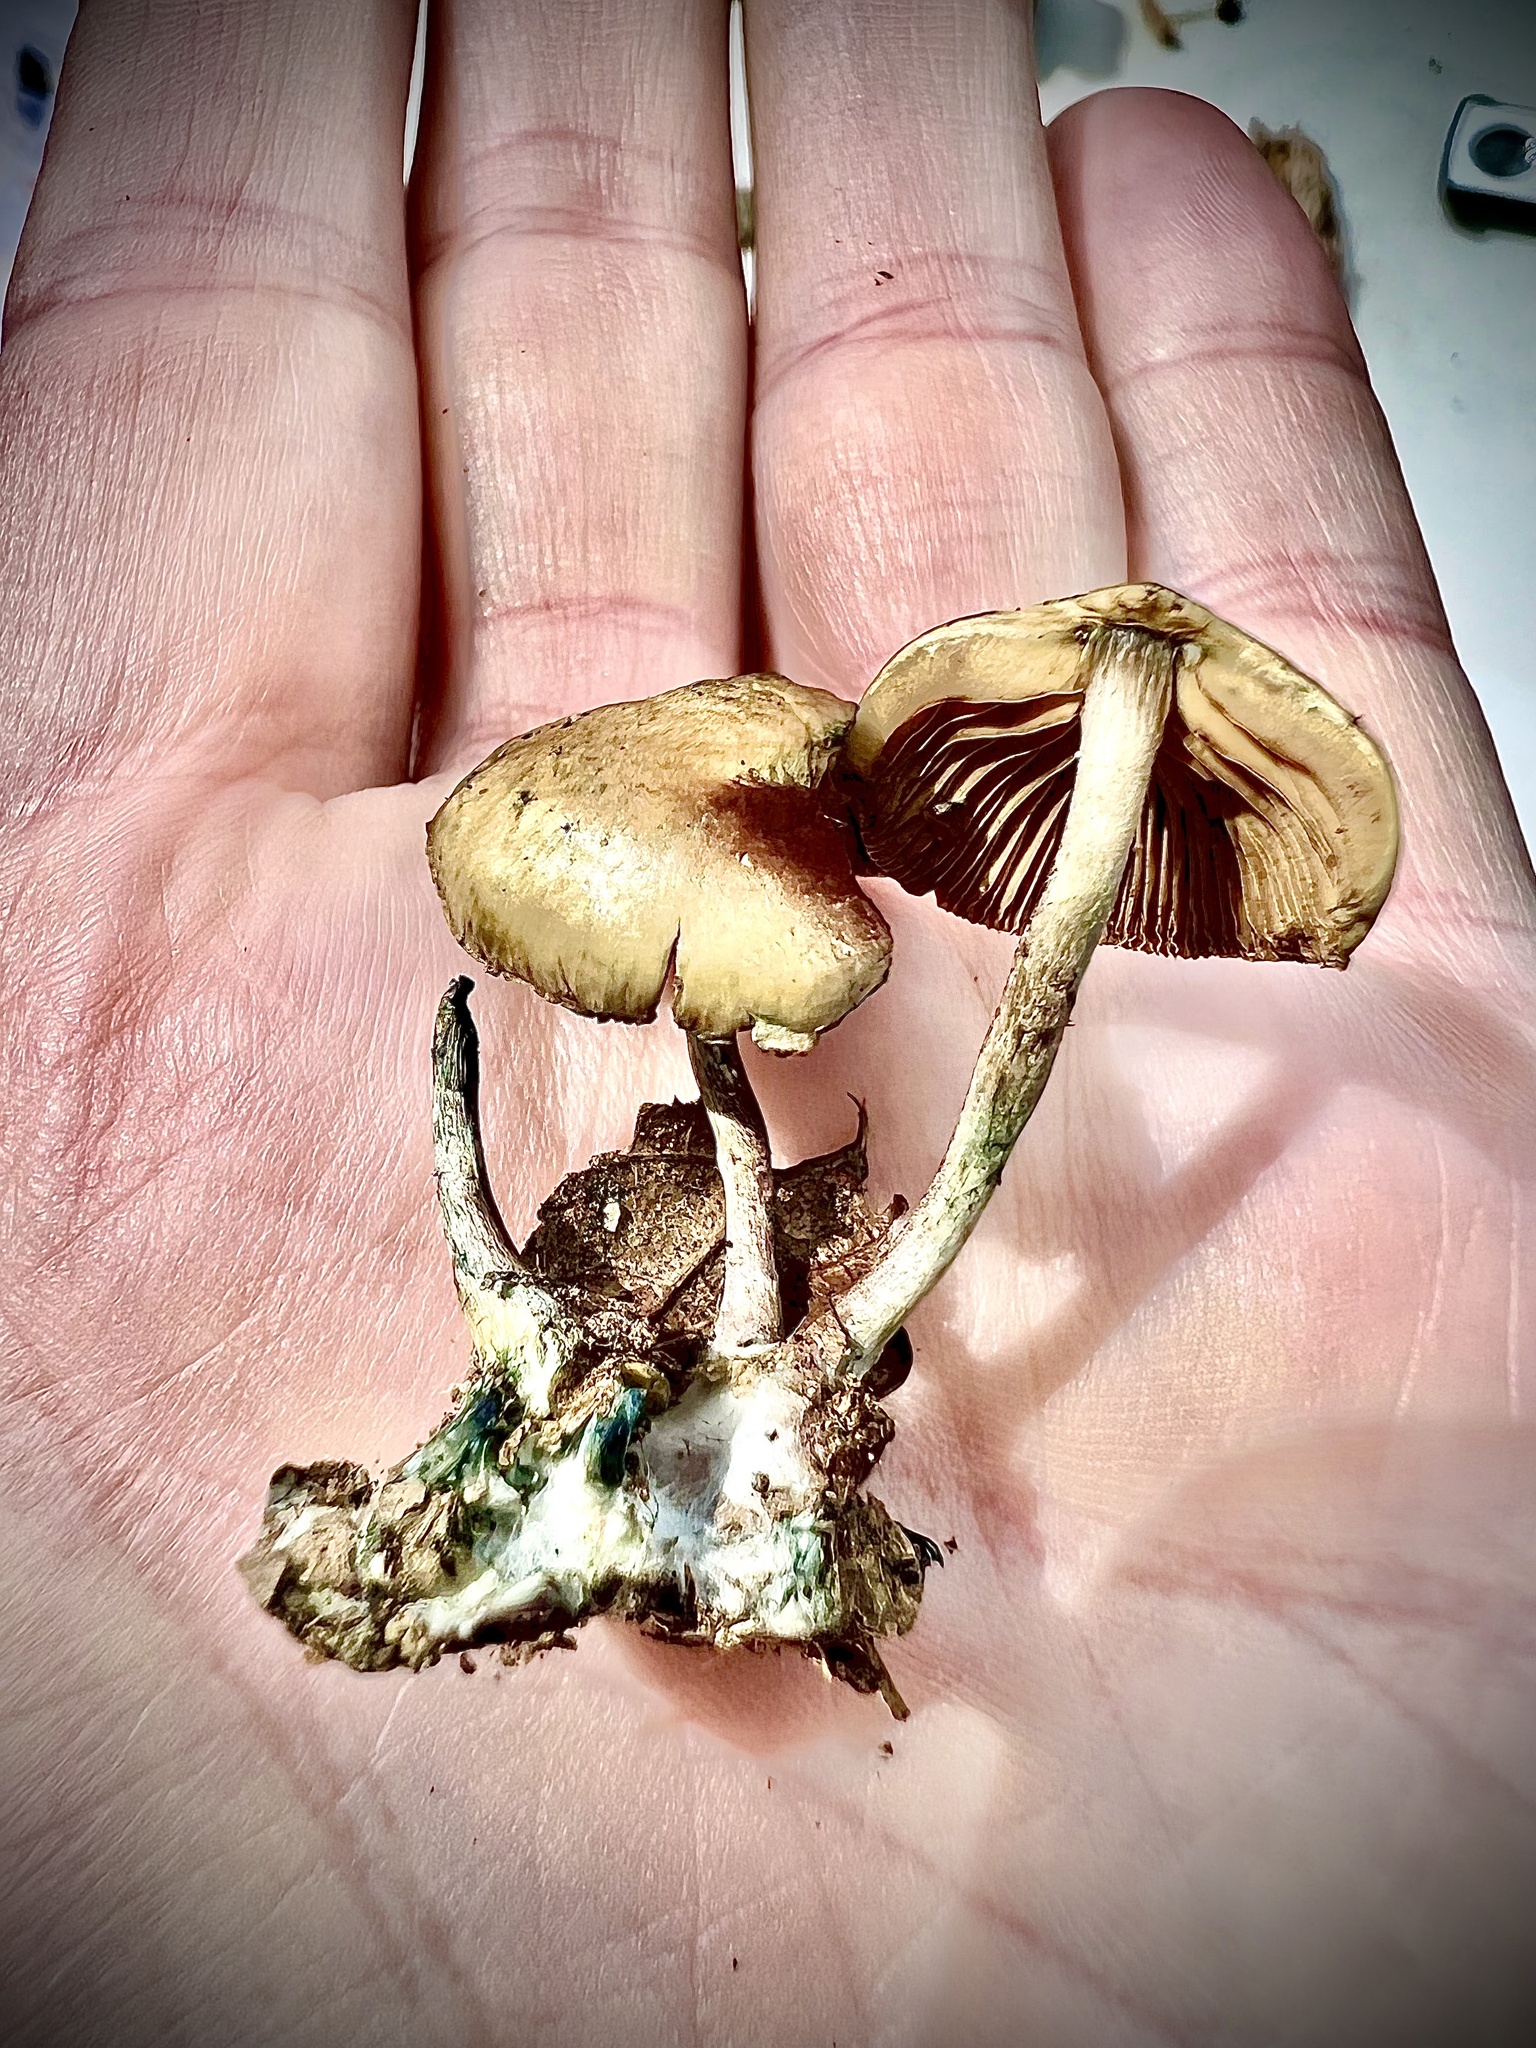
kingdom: Fungi
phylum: Basidiomycota
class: Agaricomycetes
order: Agaricales
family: Hymenogastraceae
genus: Psilocybe
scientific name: Psilocybe caerulipes
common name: Blue-foot
